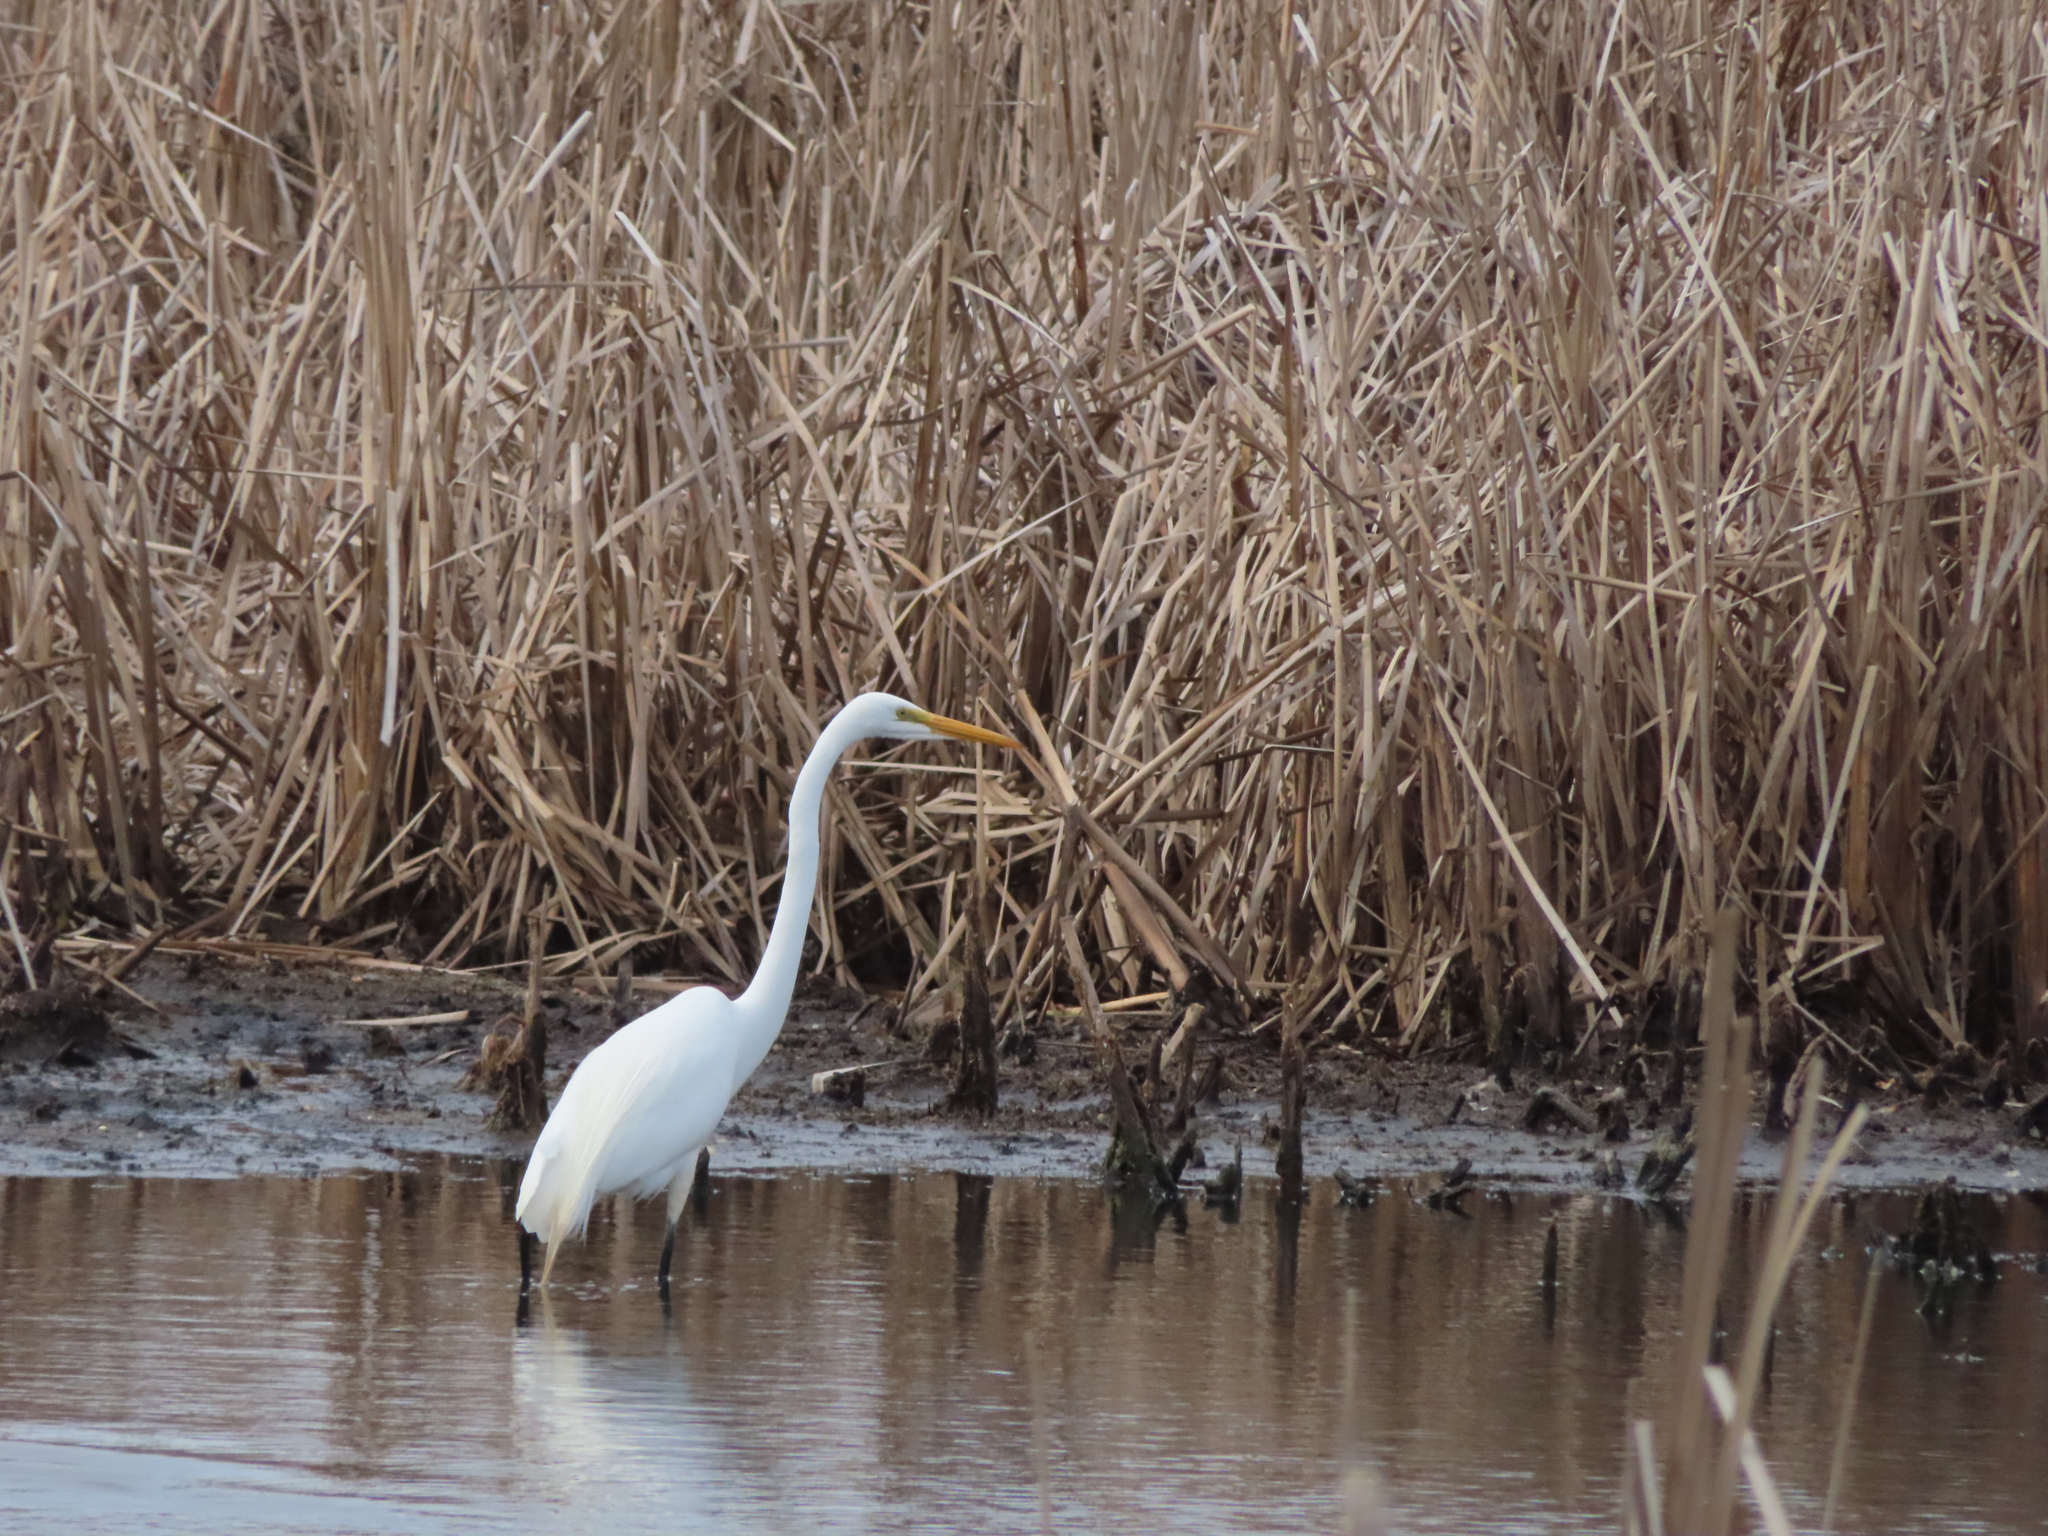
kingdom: Animalia
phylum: Chordata
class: Aves
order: Pelecaniformes
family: Ardeidae
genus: Ardea
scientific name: Ardea alba
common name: Great egret
